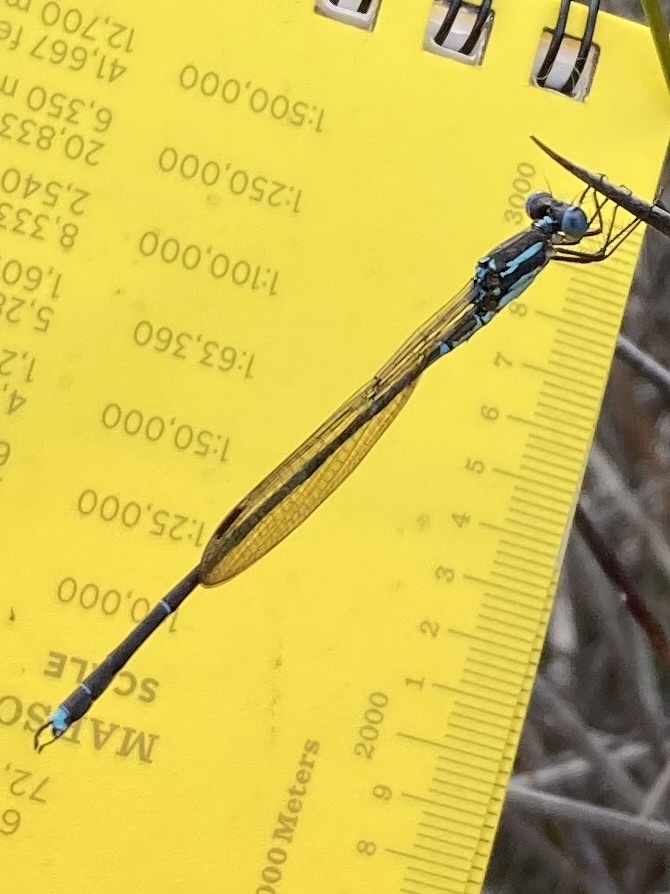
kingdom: Animalia
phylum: Arthropoda
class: Insecta
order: Odonata
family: Lestidae
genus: Austrolestes
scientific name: Austrolestes colensonis
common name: Blue damselfly
